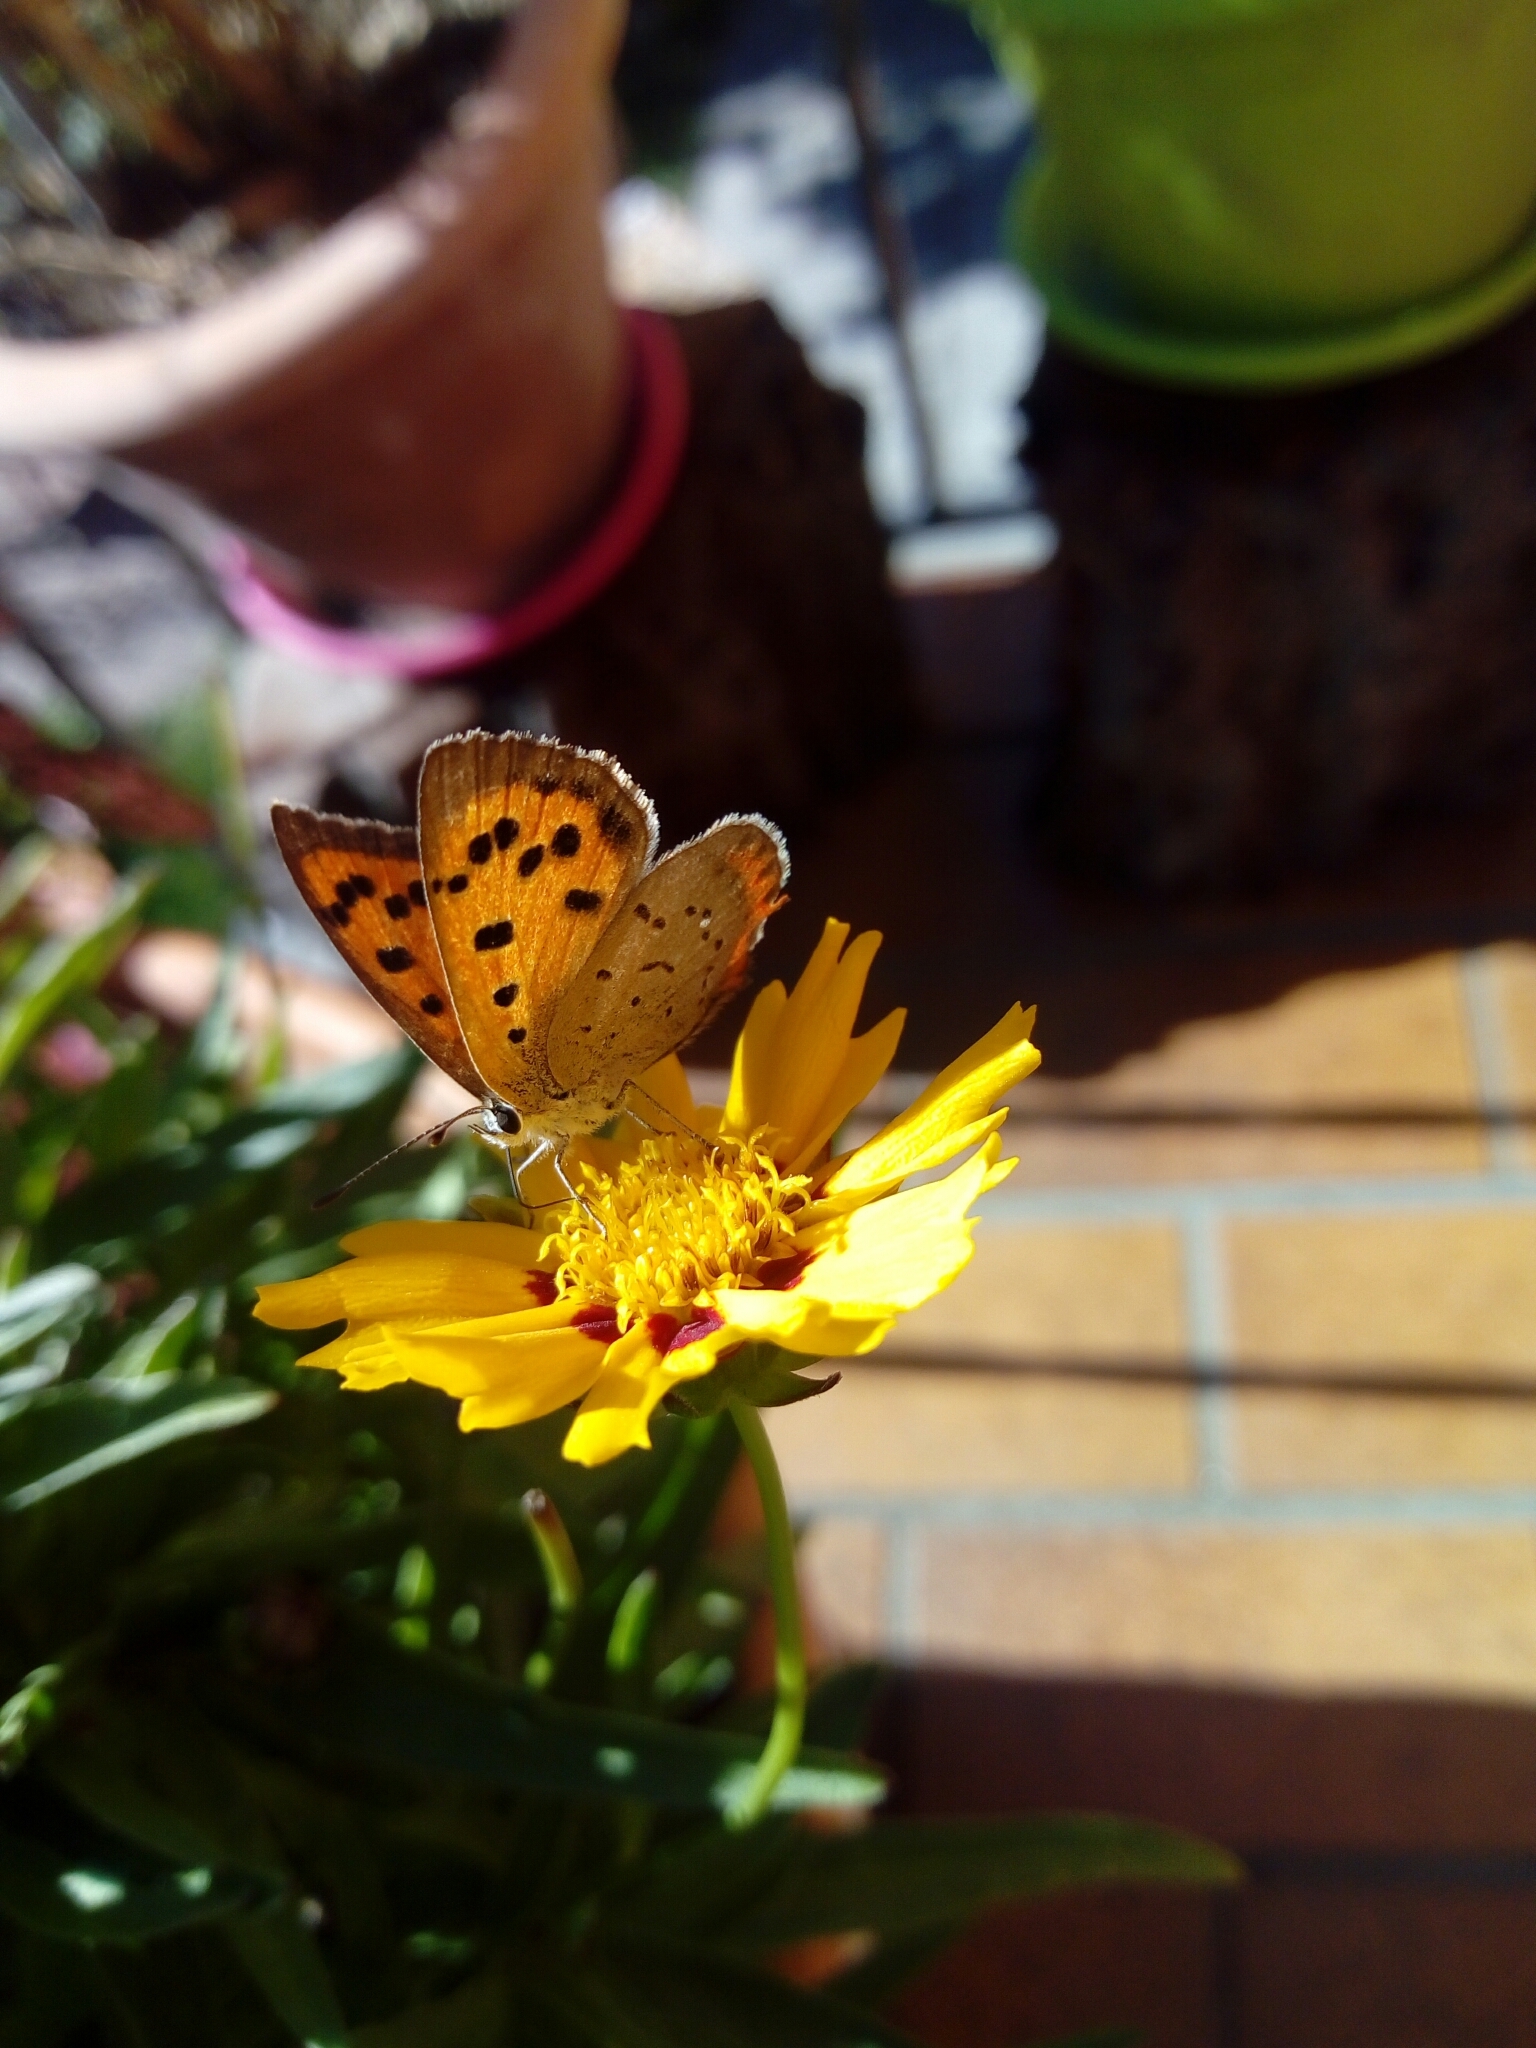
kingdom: Animalia
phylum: Arthropoda
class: Insecta
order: Lepidoptera
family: Lycaenidae
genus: Lycaena
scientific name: Lycaena phlaeas
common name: Small copper
